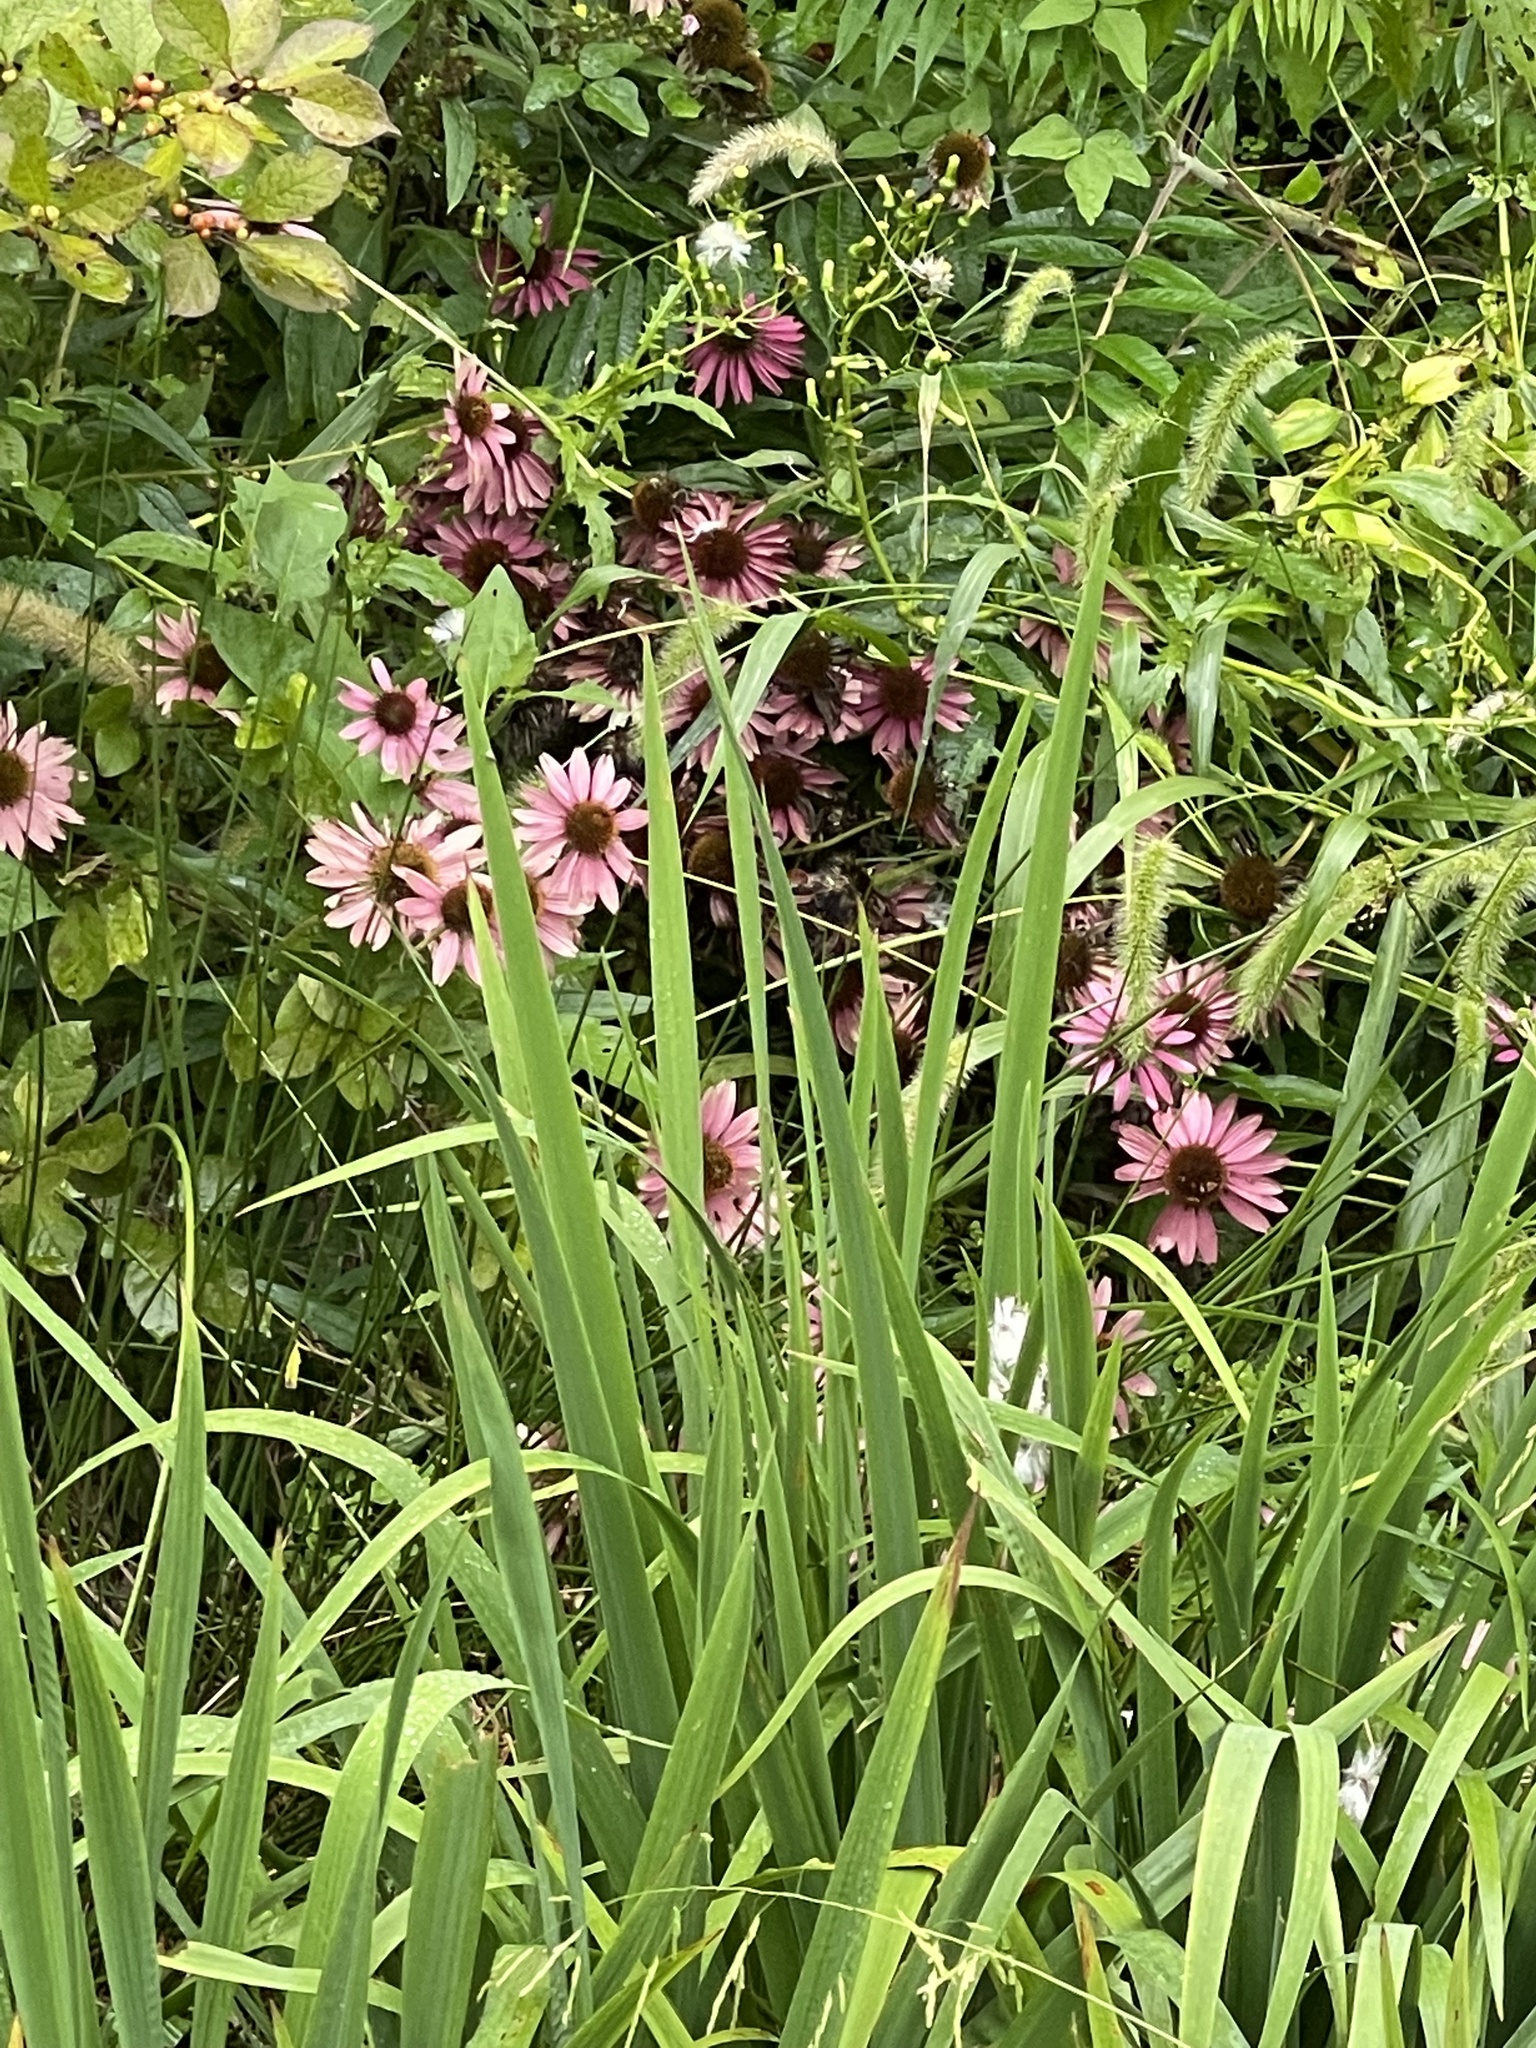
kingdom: Plantae
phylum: Tracheophyta
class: Magnoliopsida
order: Asterales
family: Asteraceae
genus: Echinacea
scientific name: Echinacea purpurea
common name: Broad-leaved purple coneflower
